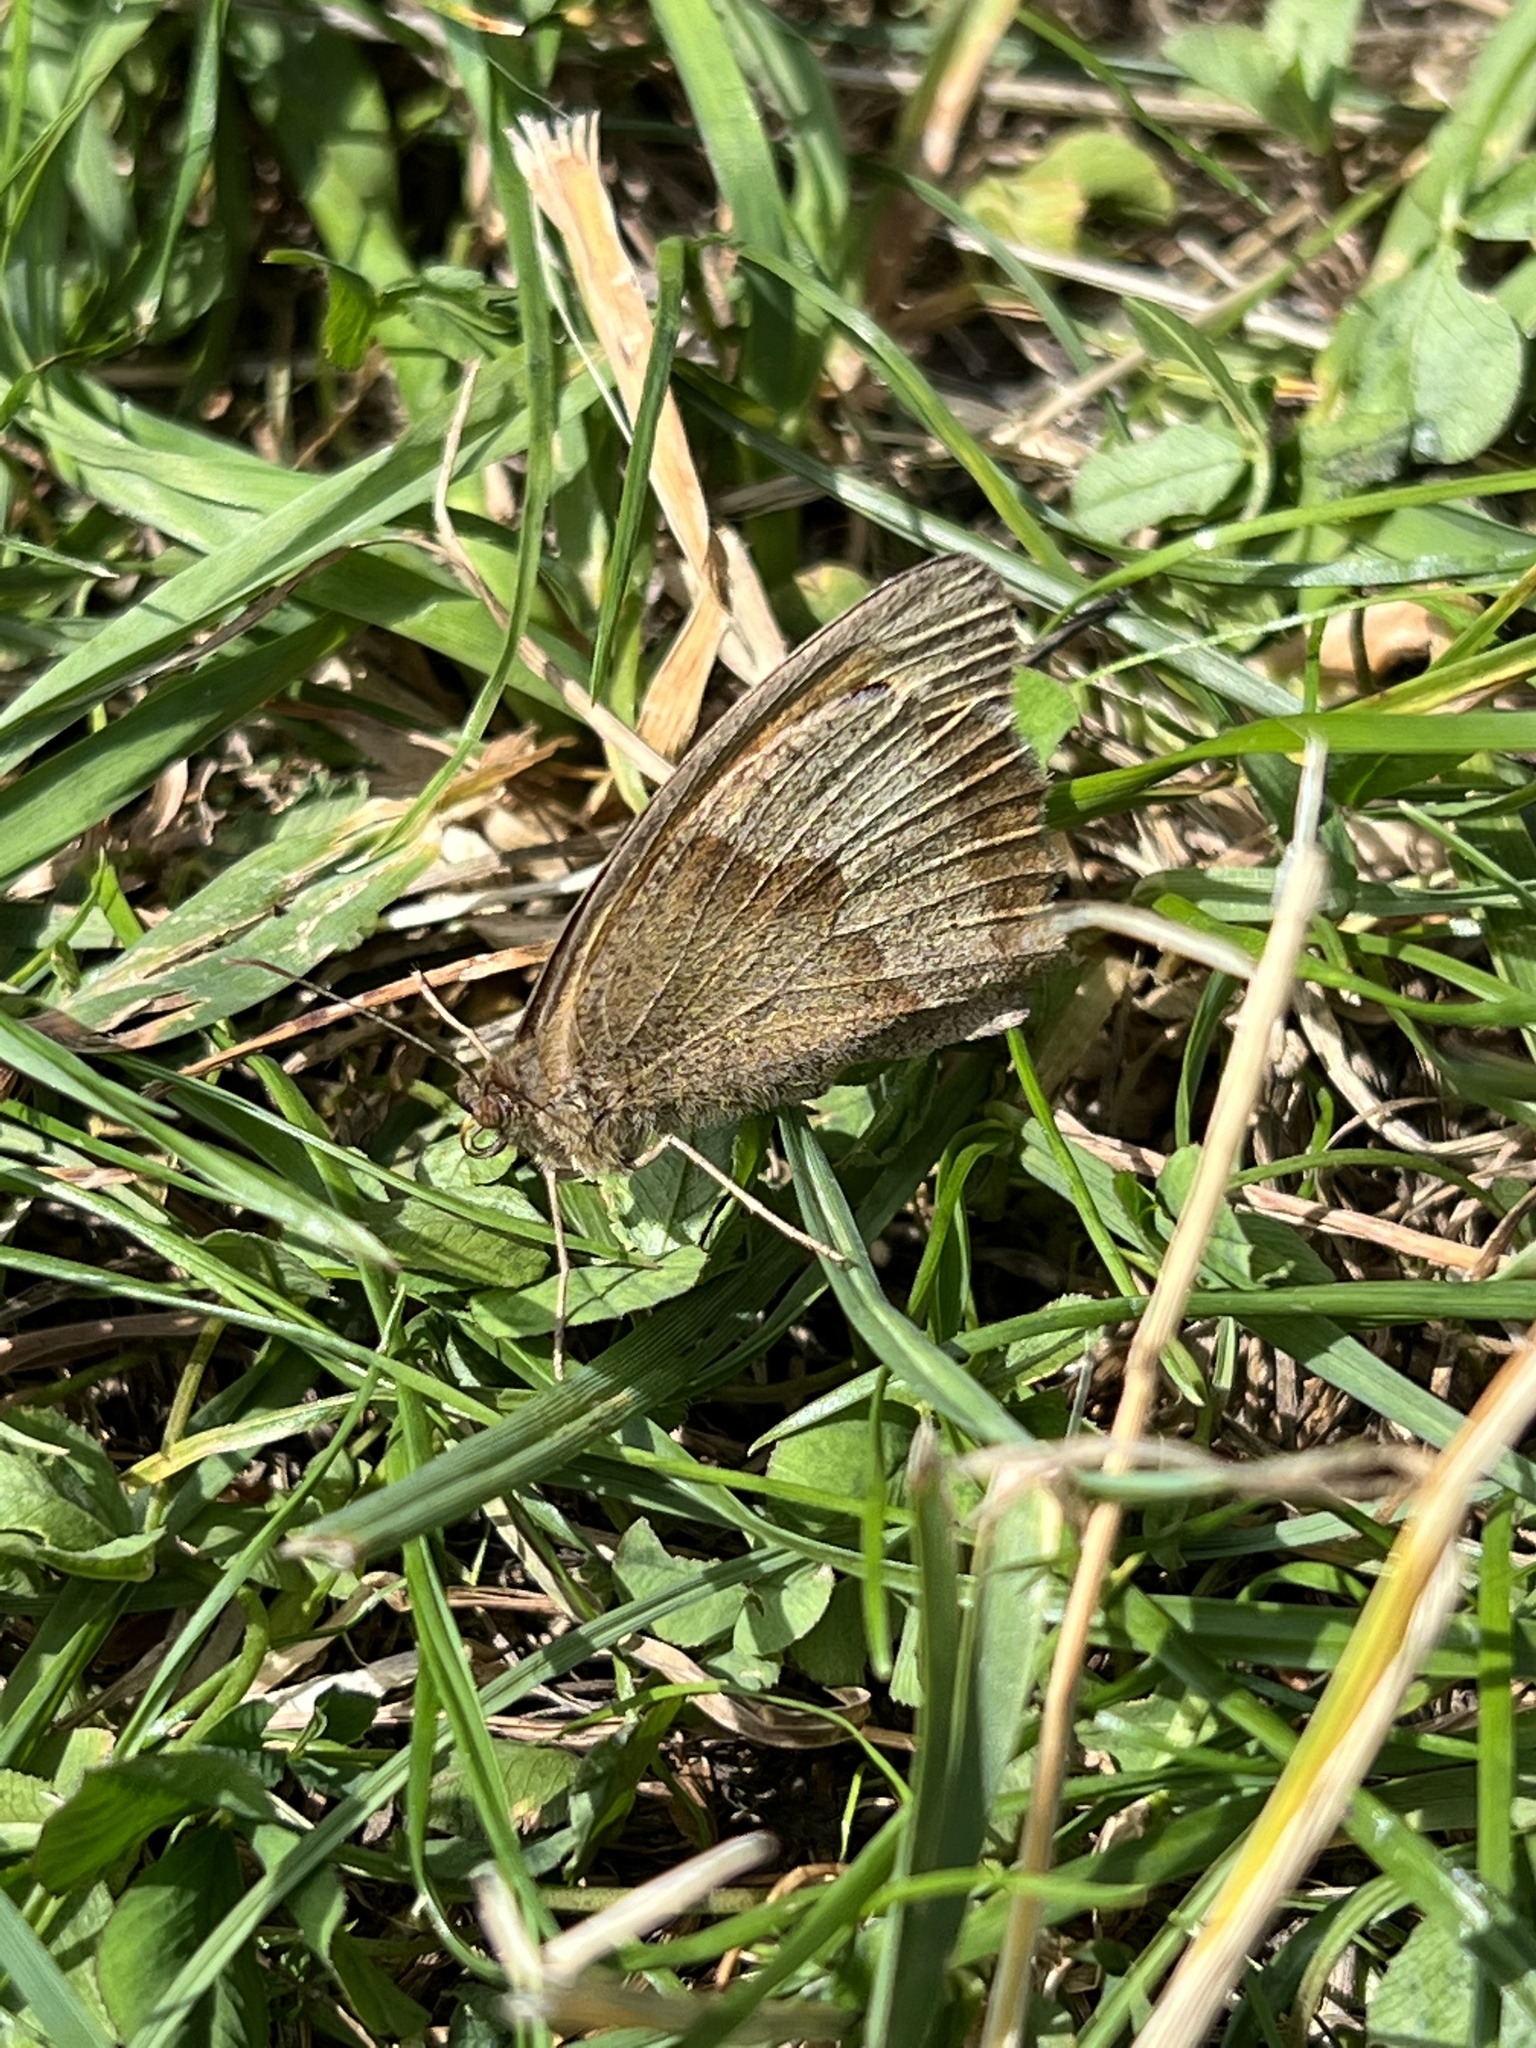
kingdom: Animalia
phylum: Arthropoda
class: Insecta
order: Lepidoptera
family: Nymphalidae
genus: Maniola
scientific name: Maniola jurtina
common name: Meadow brown
